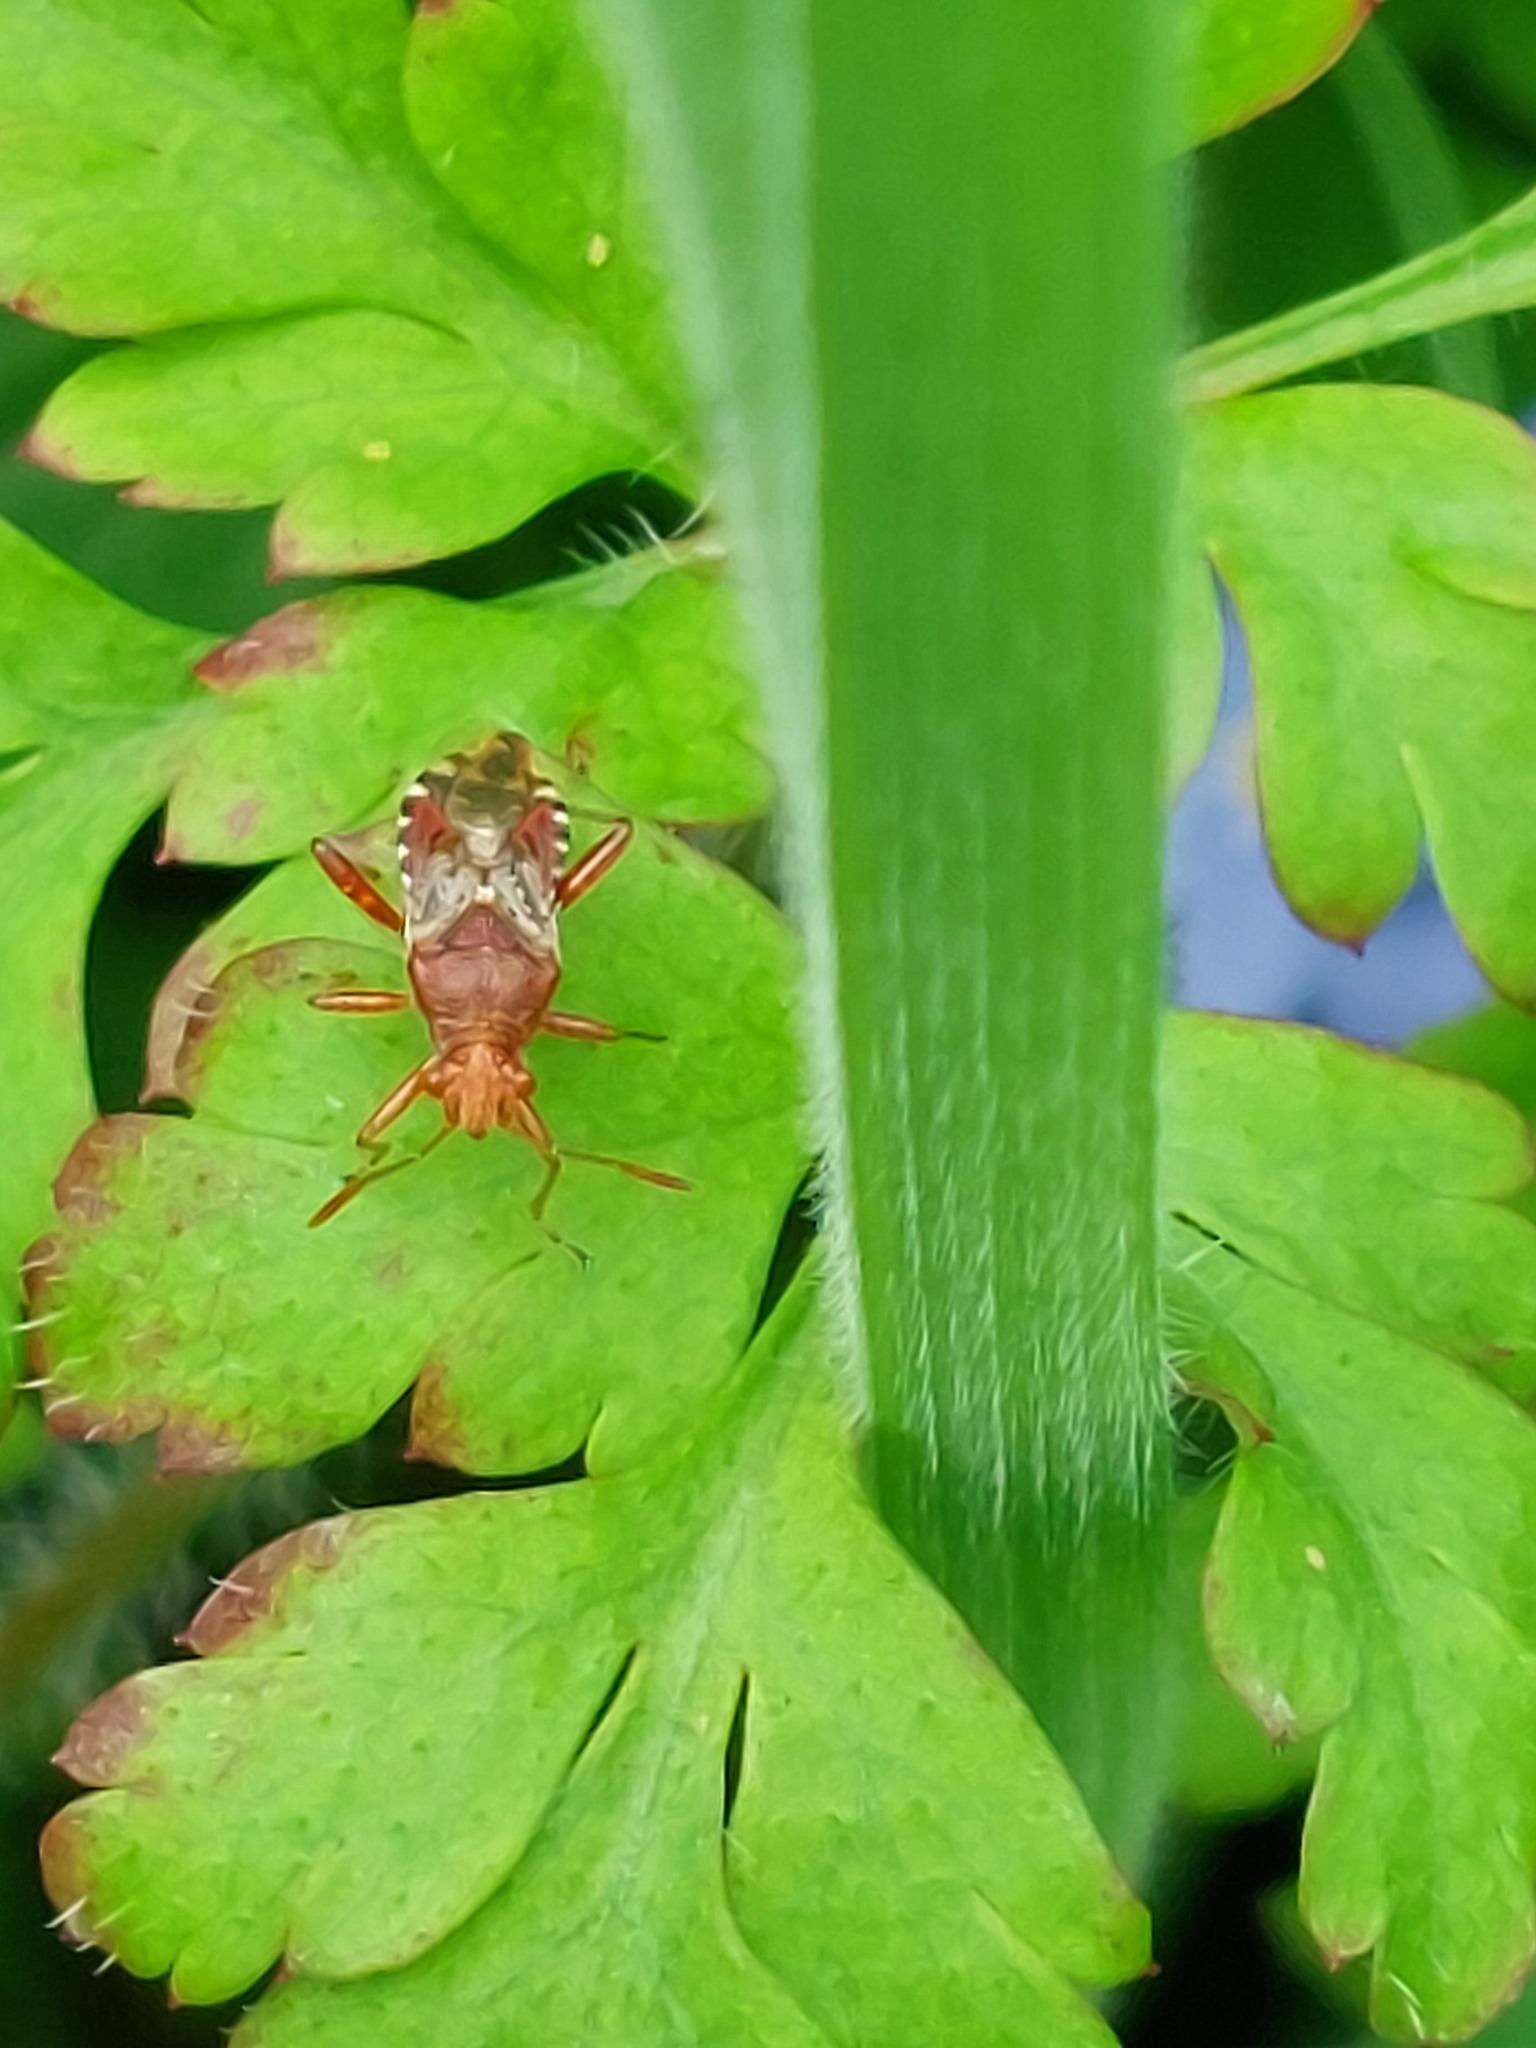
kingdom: Animalia
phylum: Arthropoda
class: Insecta
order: Hemiptera
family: Rhopalidae
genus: Rhopalus
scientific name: Rhopalus subrufus
